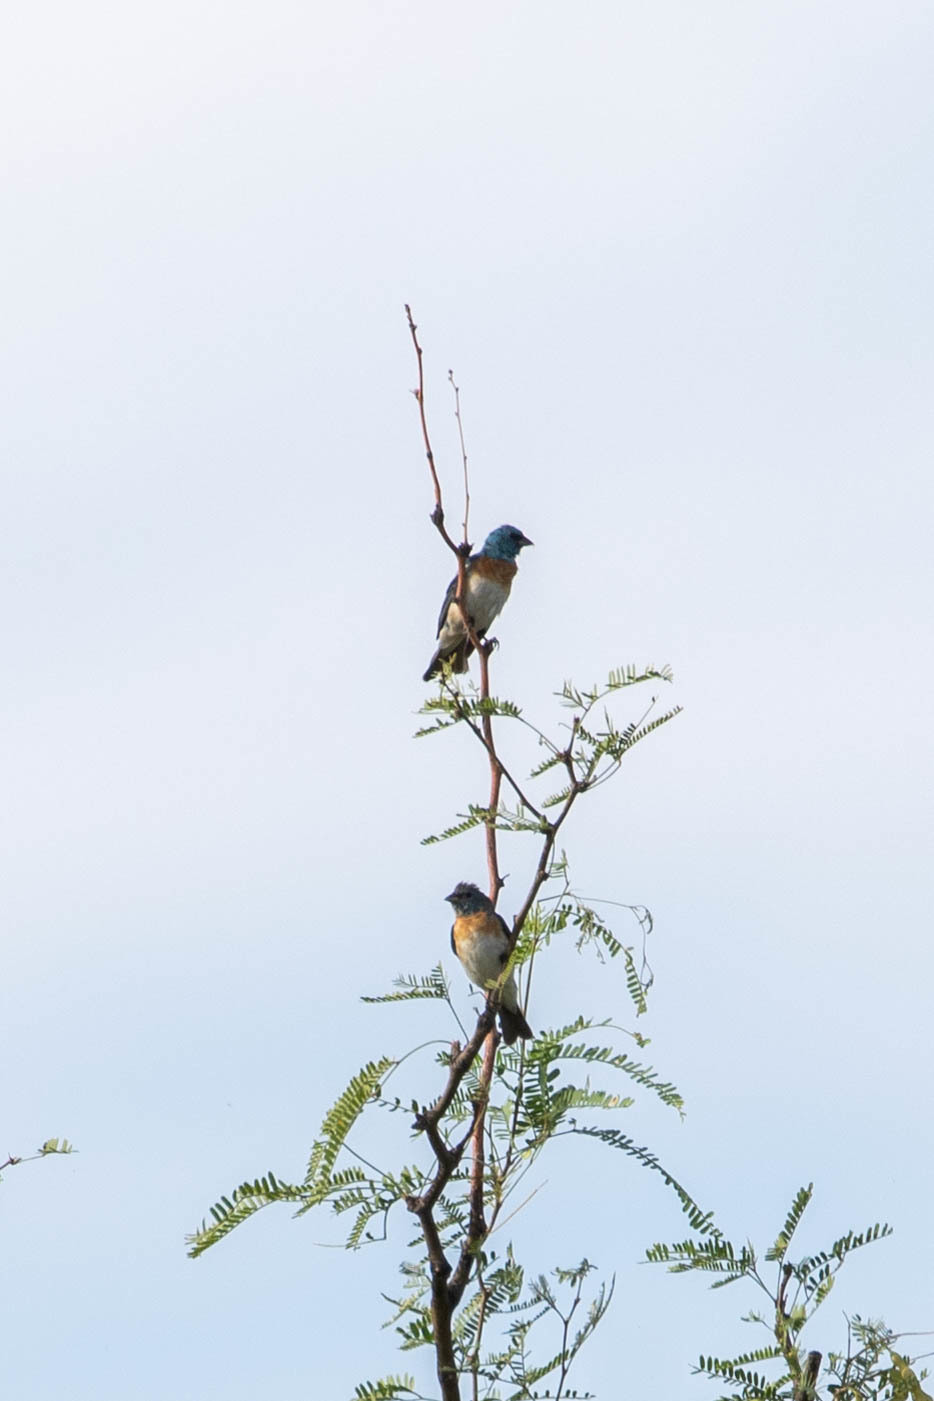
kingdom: Animalia
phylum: Chordata
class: Aves
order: Passeriformes
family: Cardinalidae
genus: Passerina
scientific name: Passerina amoena
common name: Lazuli bunting
